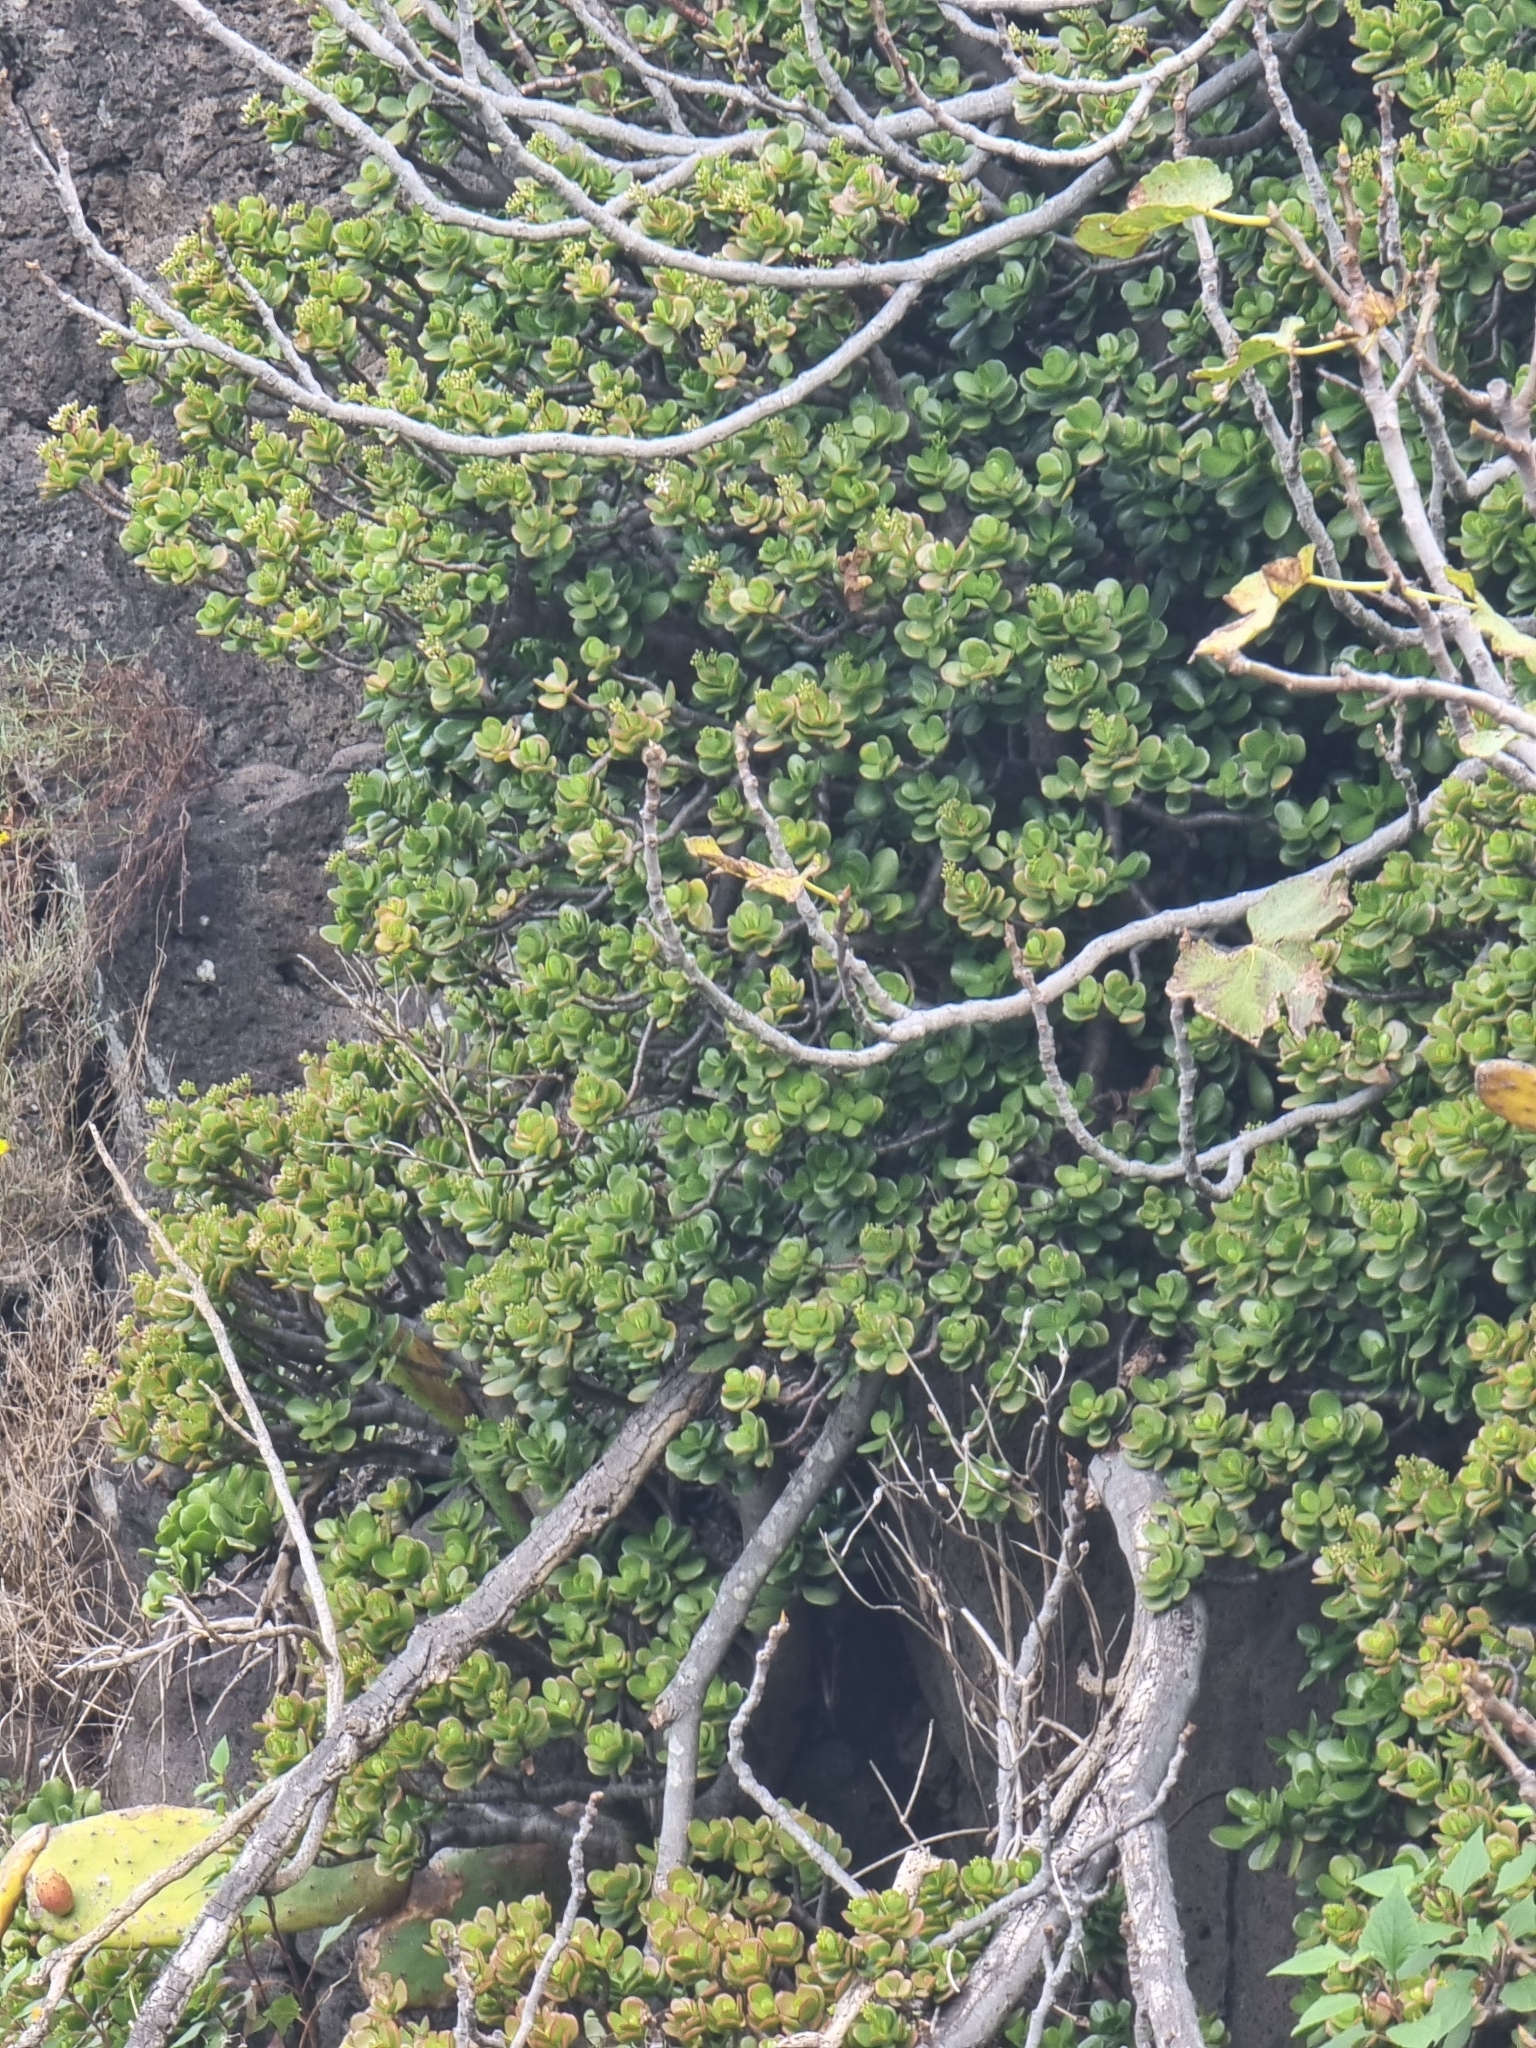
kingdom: Plantae
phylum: Tracheophyta
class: Magnoliopsida
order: Saxifragales
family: Crassulaceae
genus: Crassula
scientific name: Crassula ovata
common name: Jade plant
